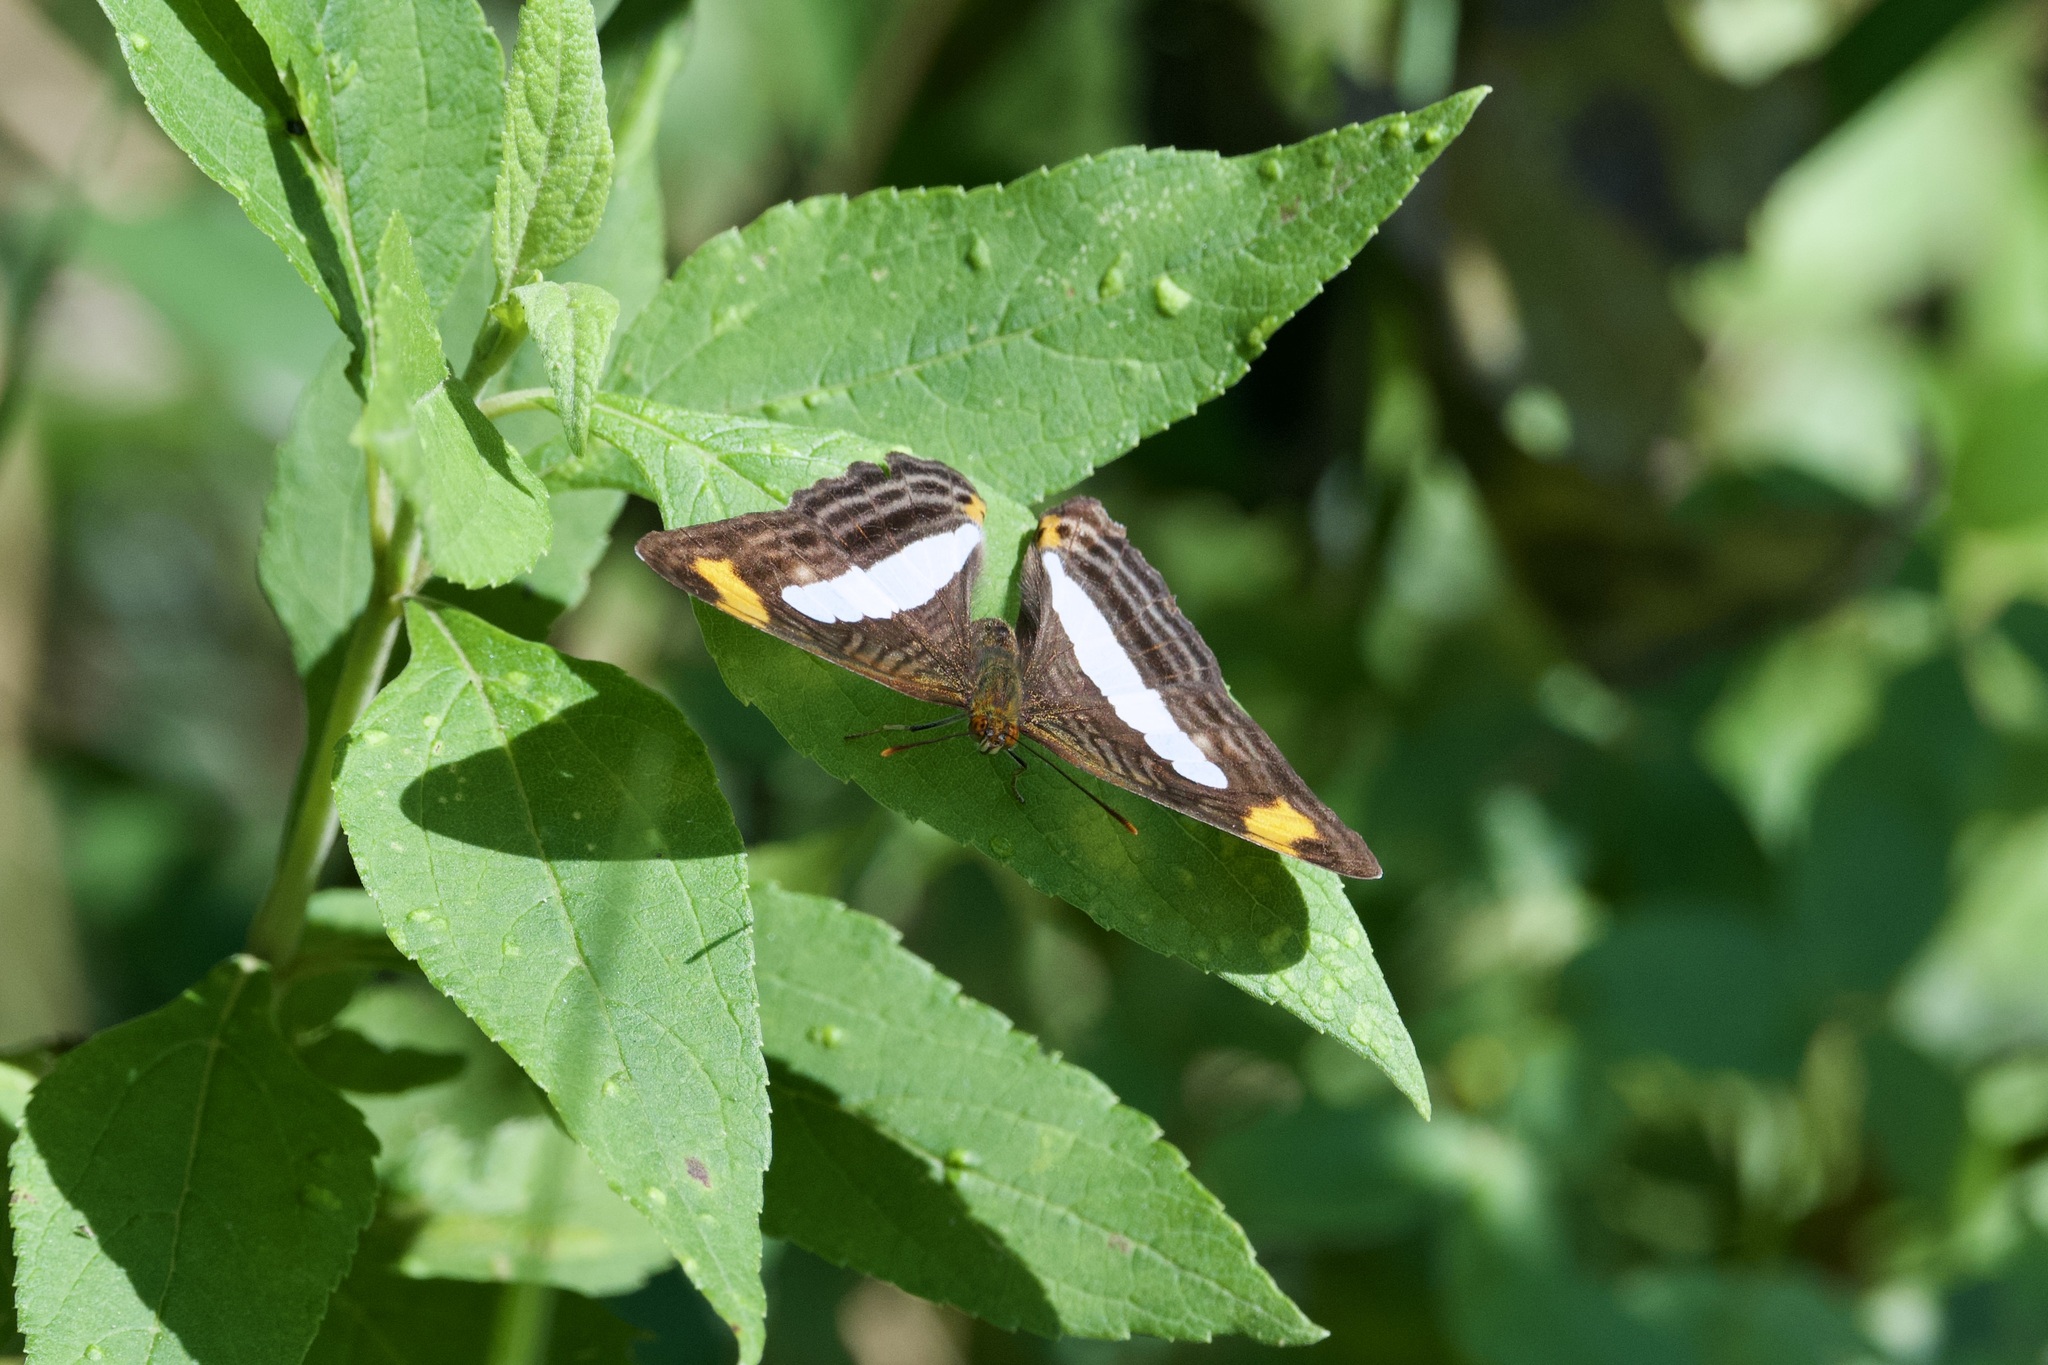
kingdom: Animalia
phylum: Arthropoda
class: Insecta
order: Lepidoptera
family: Nymphalidae
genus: Limenitis
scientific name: Limenitis iphiclus
